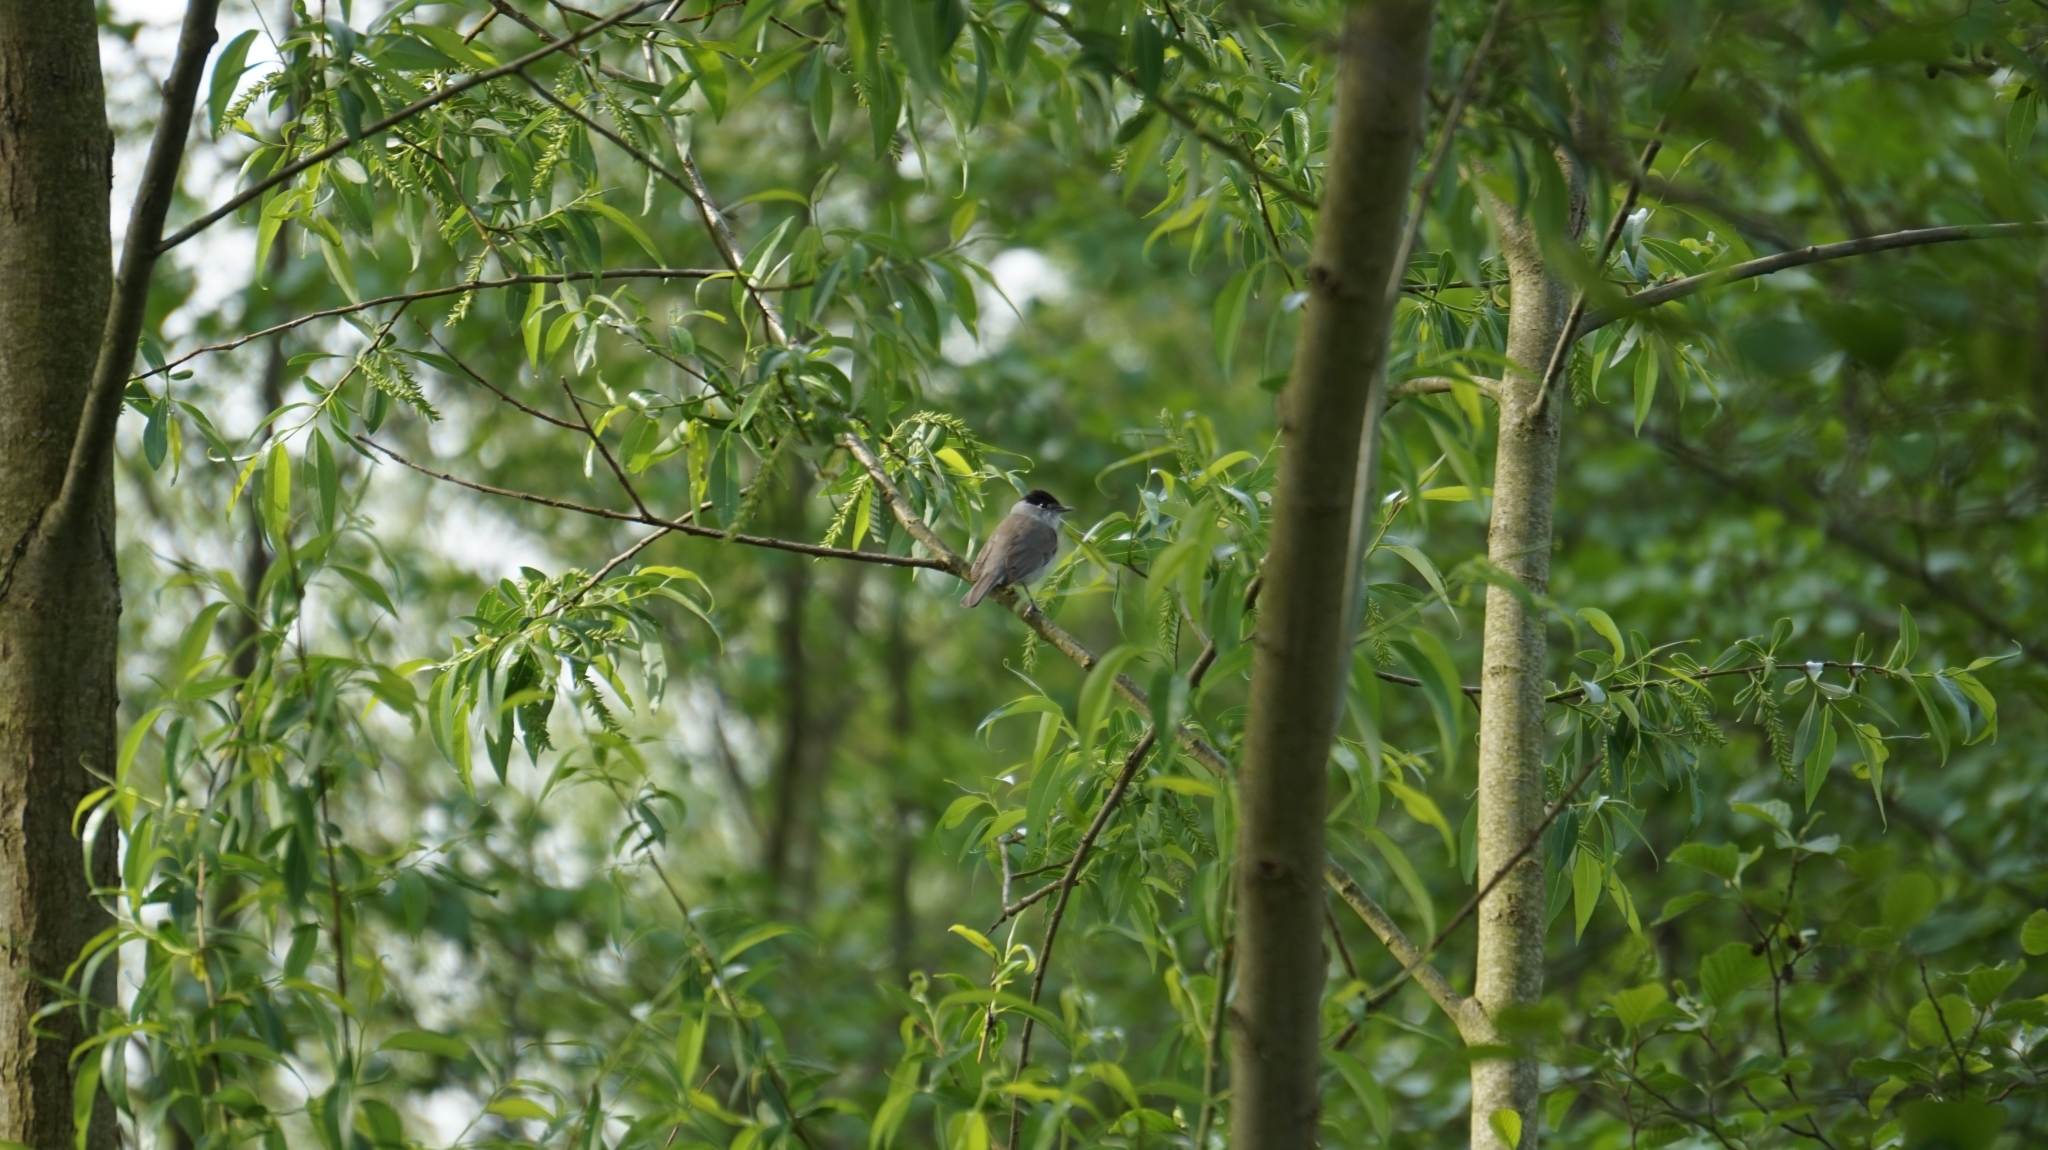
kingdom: Animalia
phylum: Chordata
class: Aves
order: Passeriformes
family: Sylviidae
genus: Sylvia
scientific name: Sylvia atricapilla
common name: Eurasian blackcap
